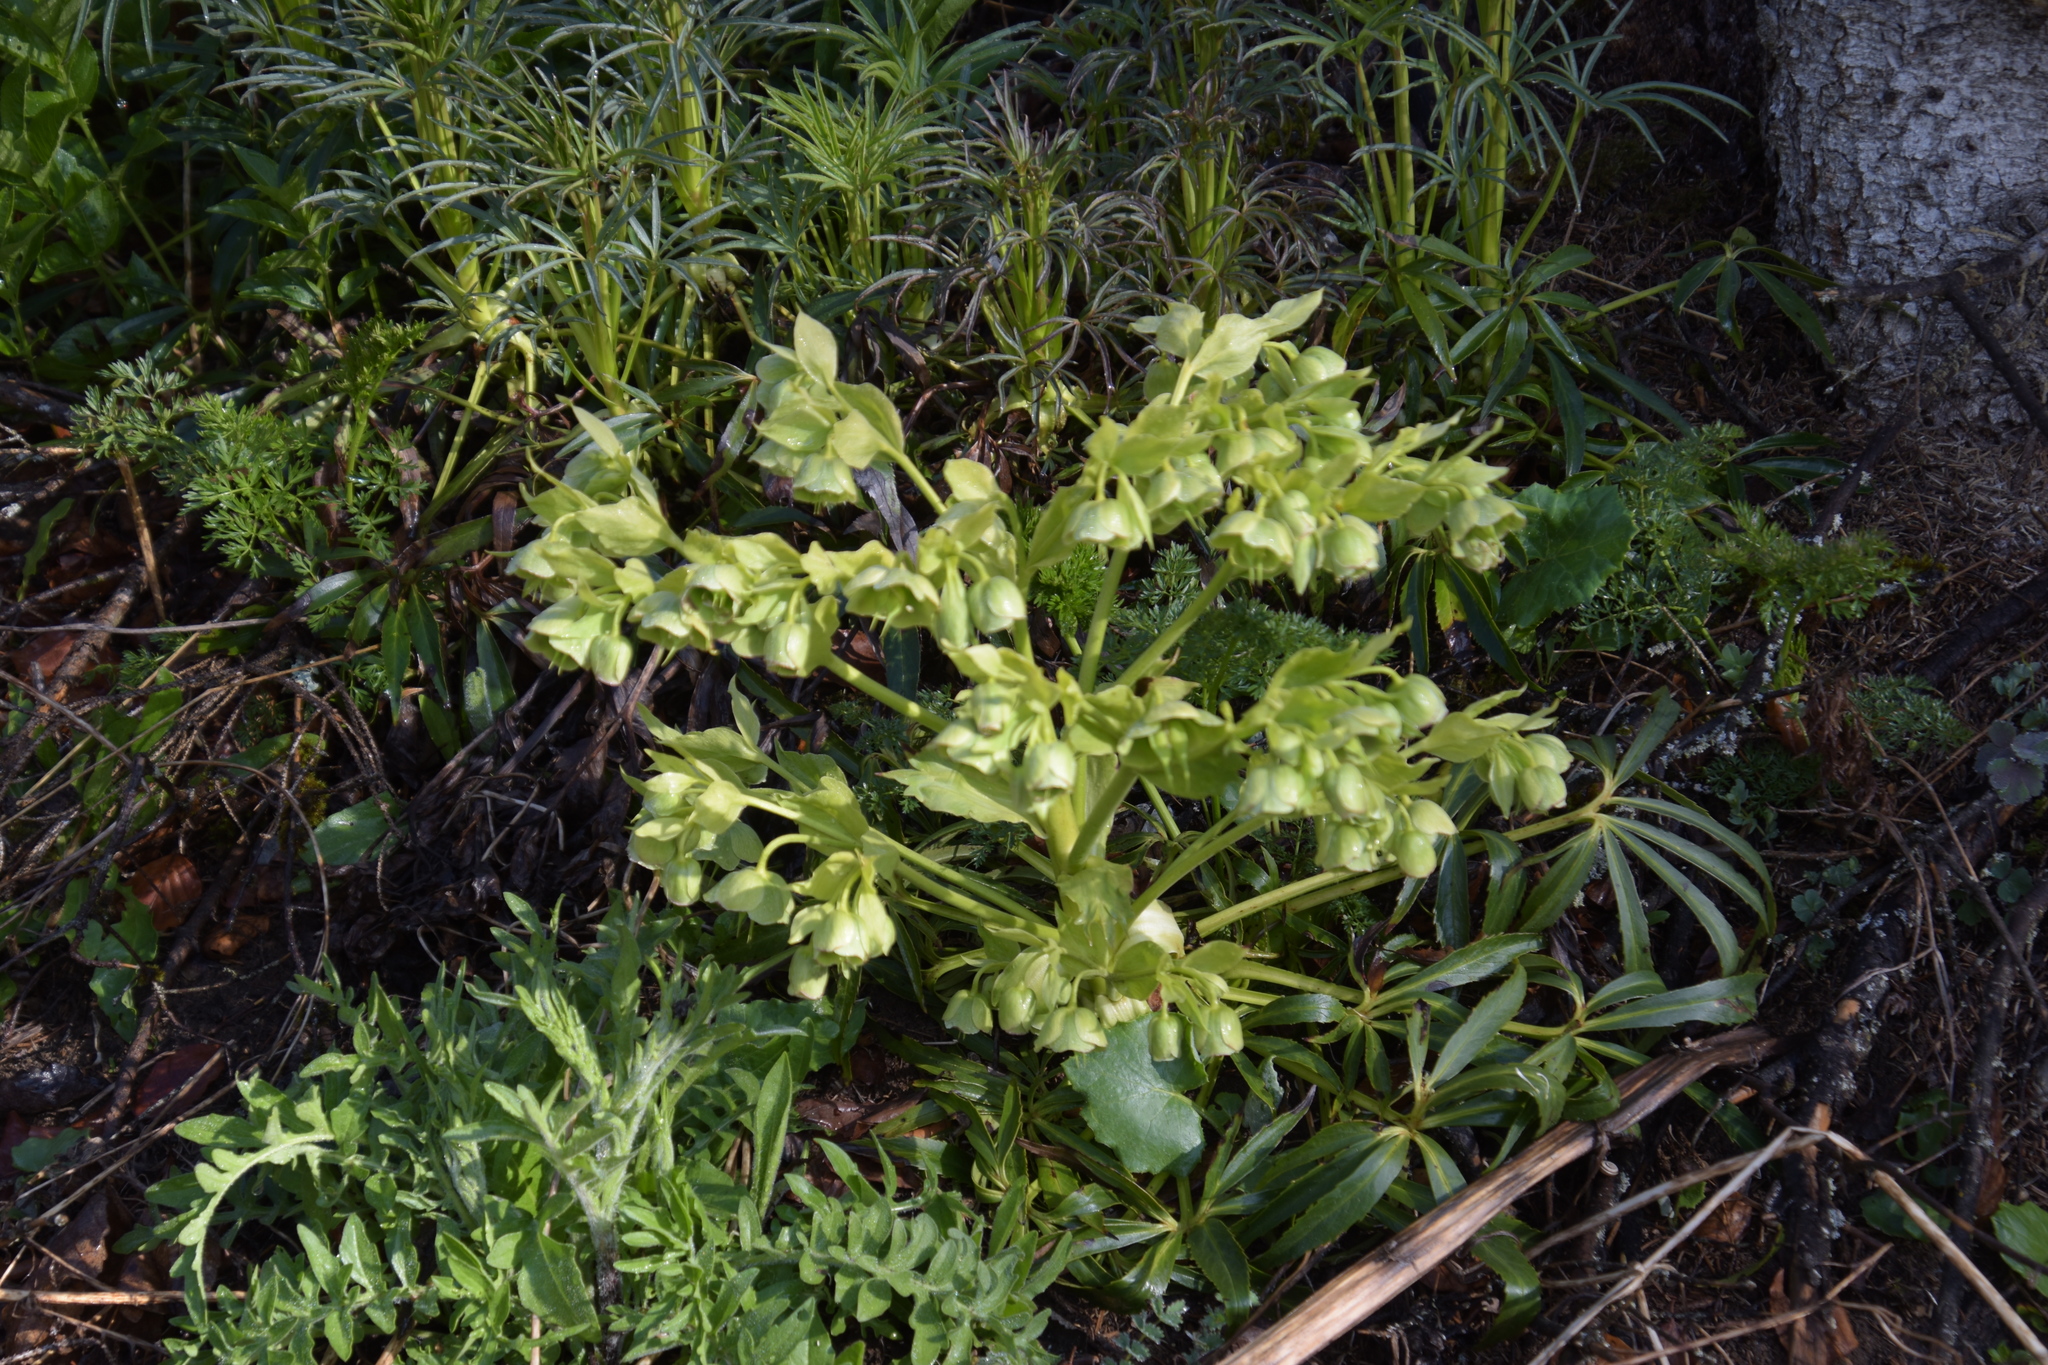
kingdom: Plantae
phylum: Tracheophyta
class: Magnoliopsida
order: Ranunculales
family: Ranunculaceae
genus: Helleborus
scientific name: Helleborus foetidus
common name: Stinking hellebore
